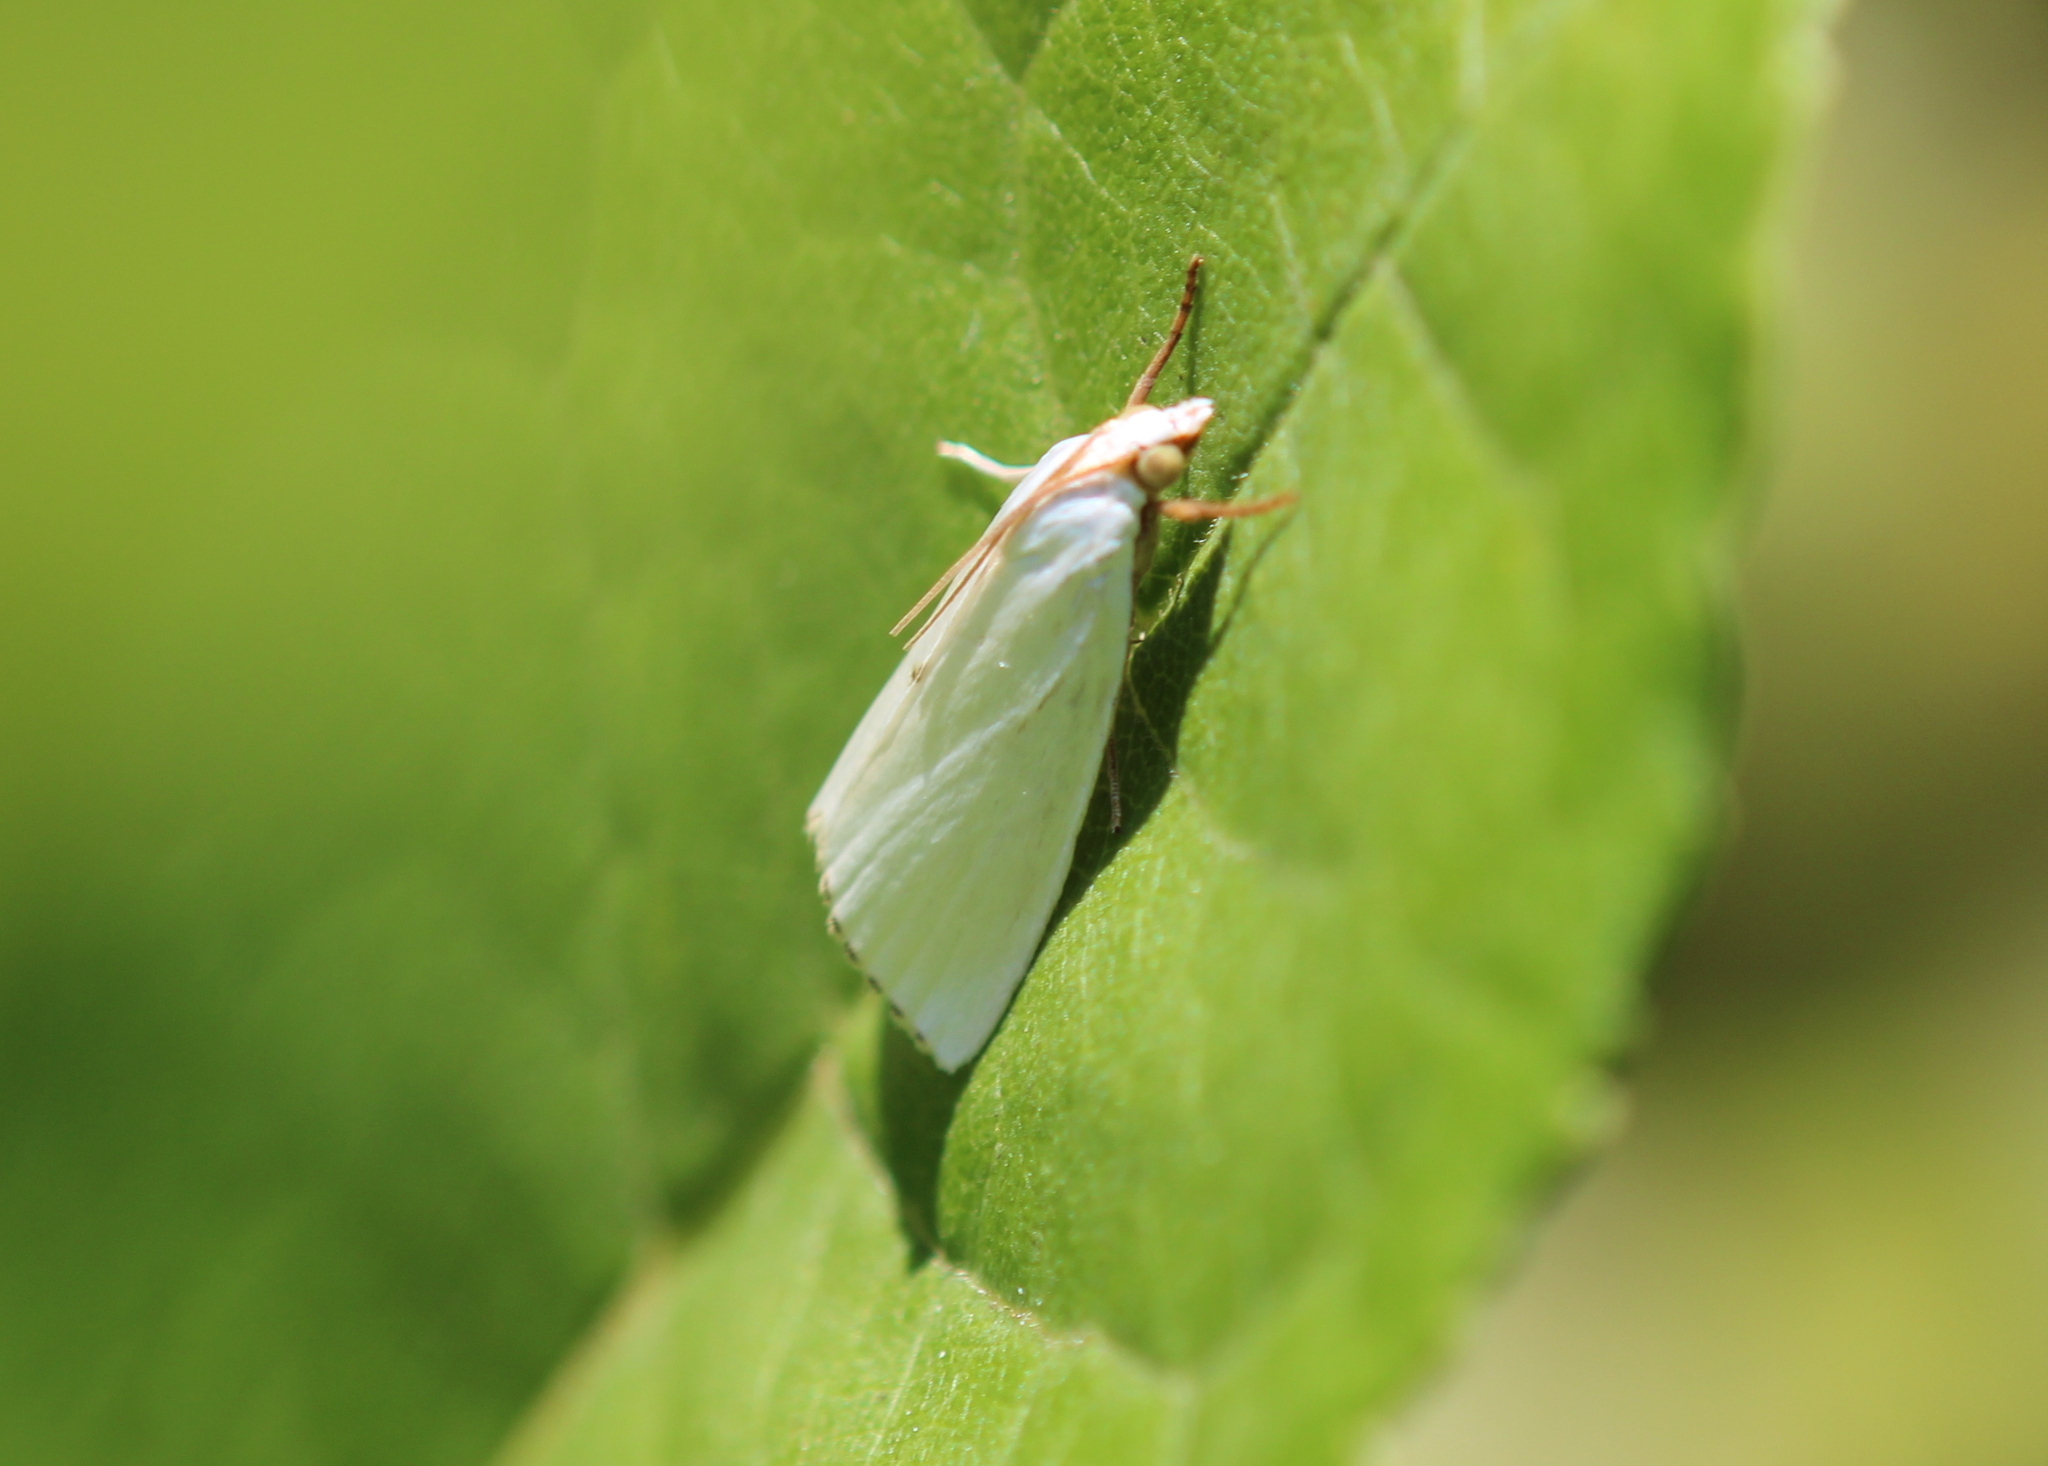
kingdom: Animalia
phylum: Arthropoda
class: Insecta
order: Lepidoptera
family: Crambidae
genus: Argyria
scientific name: Argyria nivalis
